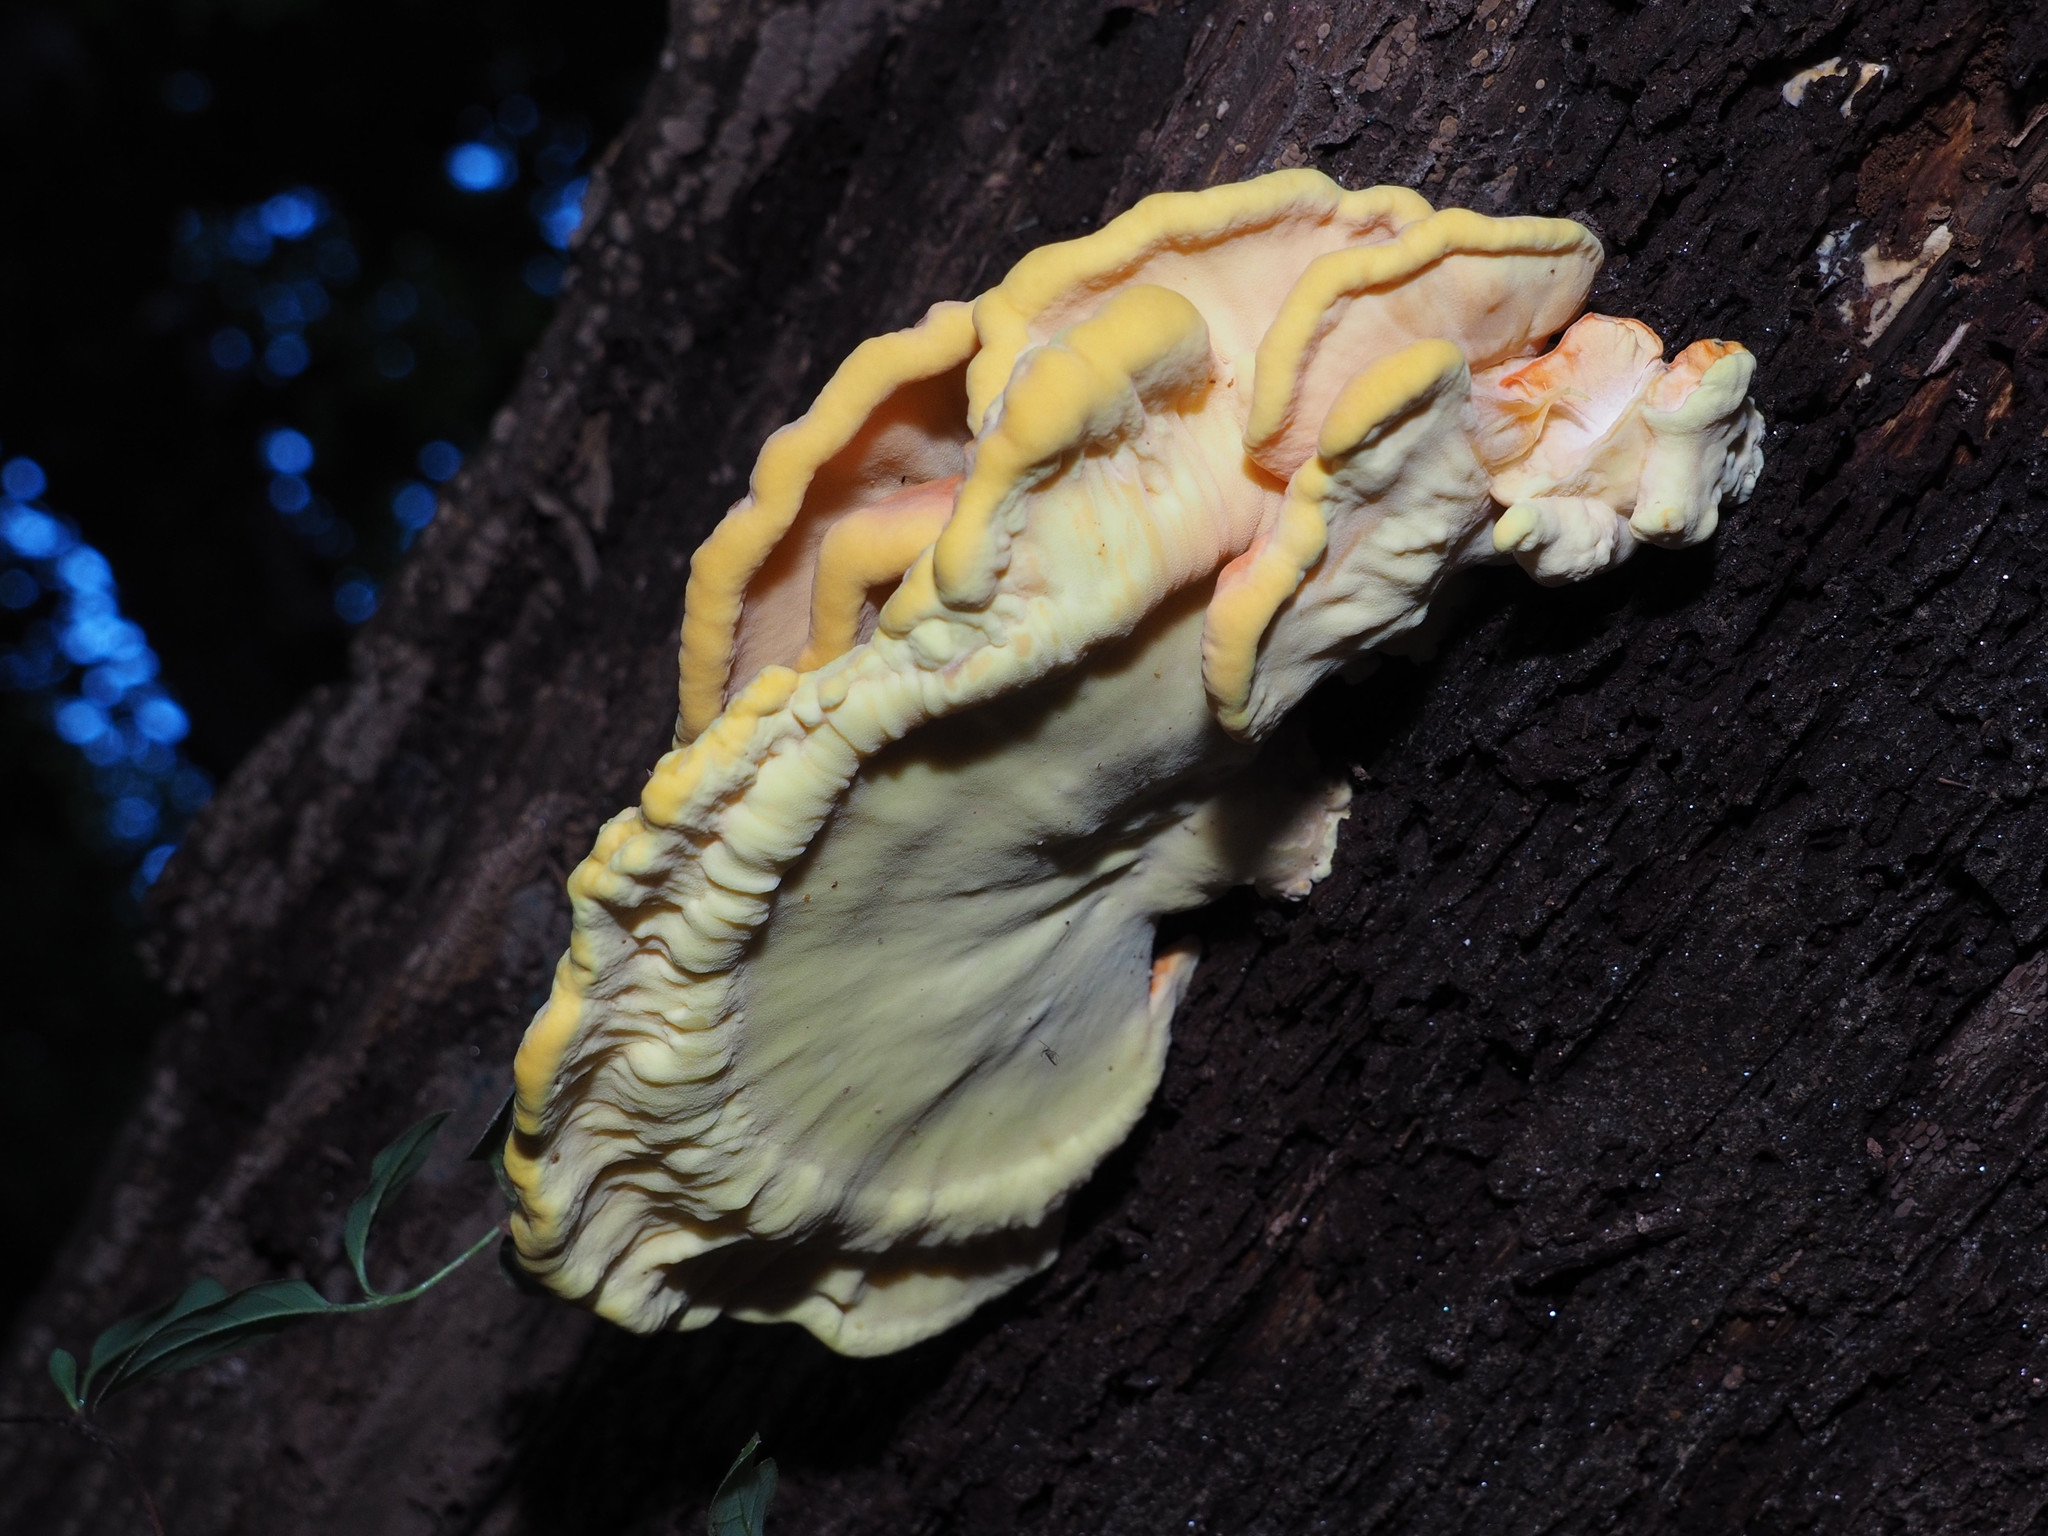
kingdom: Fungi
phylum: Basidiomycota
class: Agaricomycetes
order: Polyporales
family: Laetiporaceae
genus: Laetiporus
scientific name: Laetiporus sulphureus
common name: Chicken of the woods
